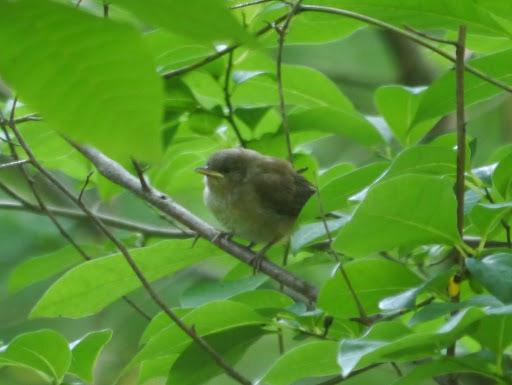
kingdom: Animalia
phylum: Chordata
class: Aves
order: Passeriformes
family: Troglodytidae
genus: Troglodytes
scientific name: Troglodytes aedon
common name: House wren
